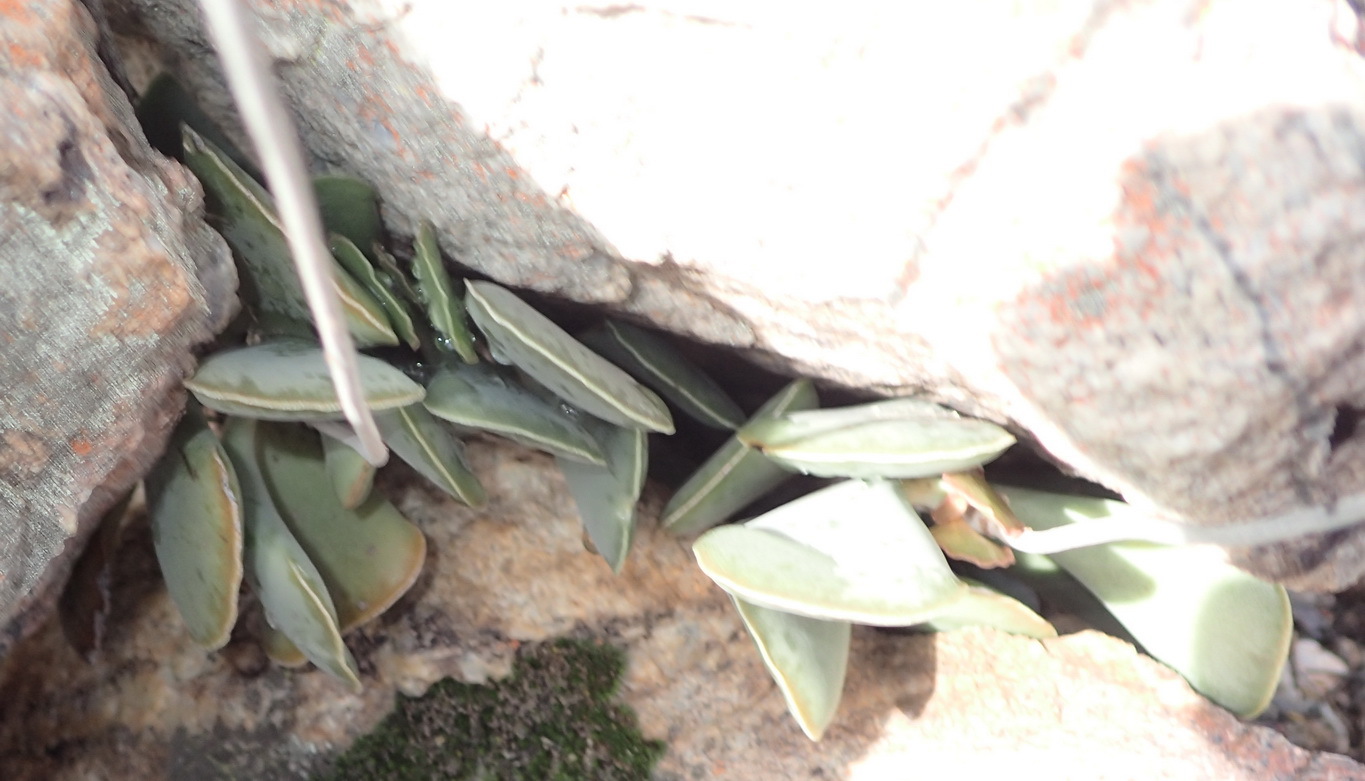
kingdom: Plantae
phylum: Tracheophyta
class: Magnoliopsida
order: Saxifragales
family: Crassulaceae
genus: Adromischus
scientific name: Adromischus triflorus
